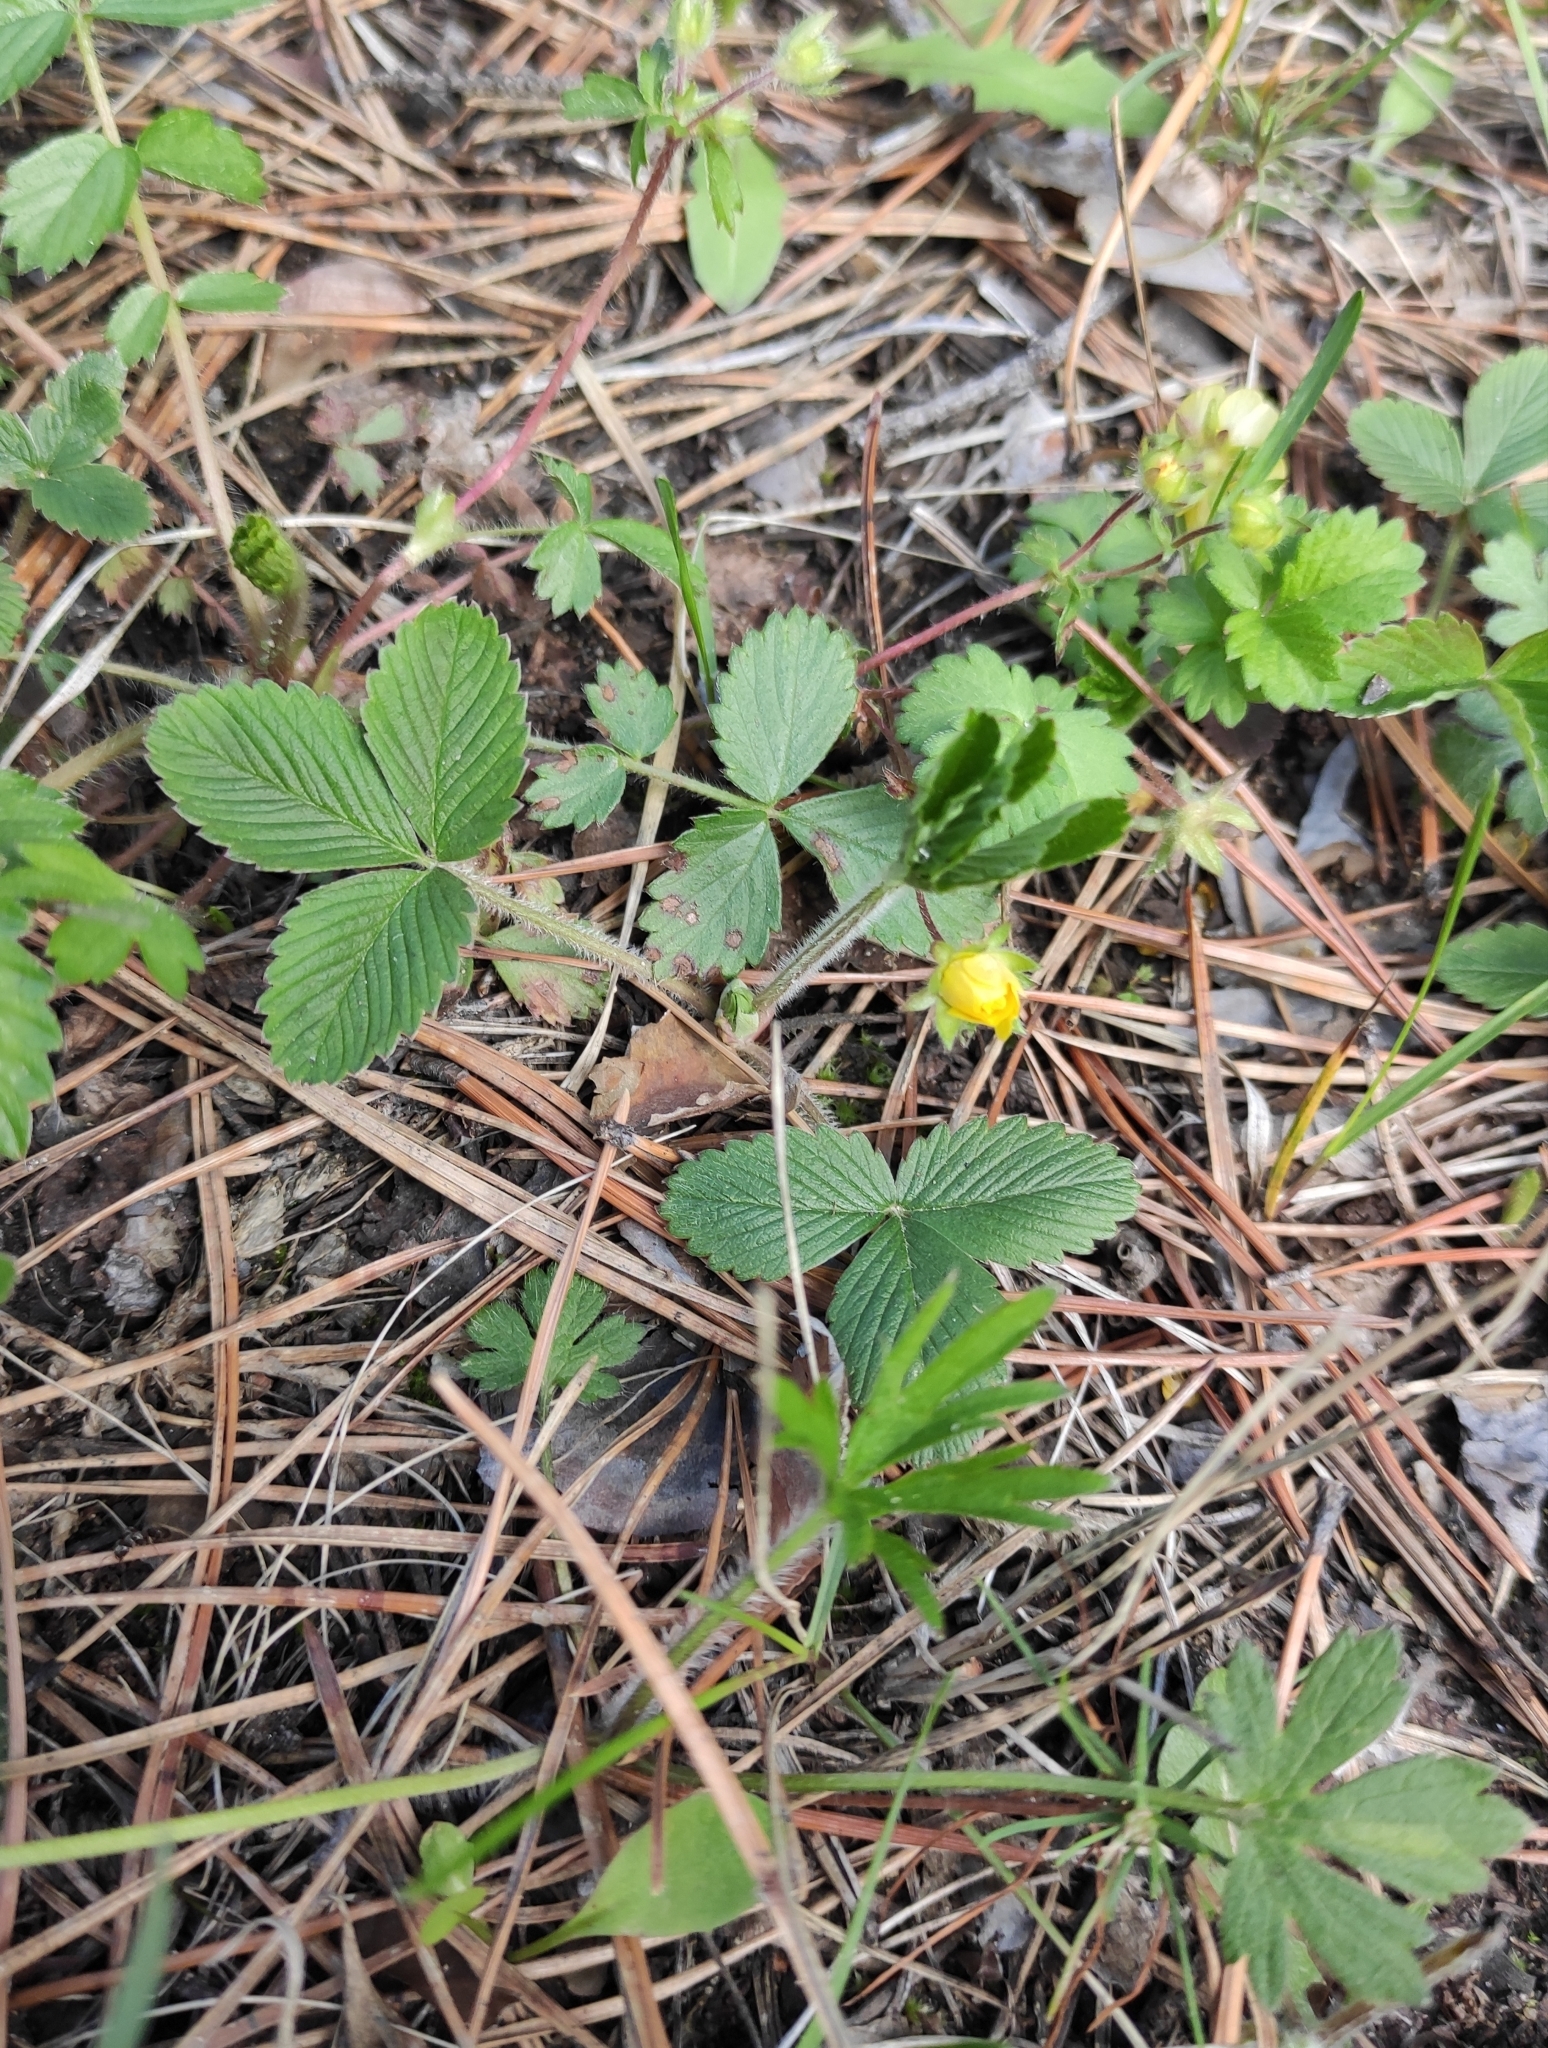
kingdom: Plantae
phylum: Tracheophyta
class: Magnoliopsida
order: Rosales
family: Rosaceae
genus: Potentilla
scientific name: Potentilla fragarioides
